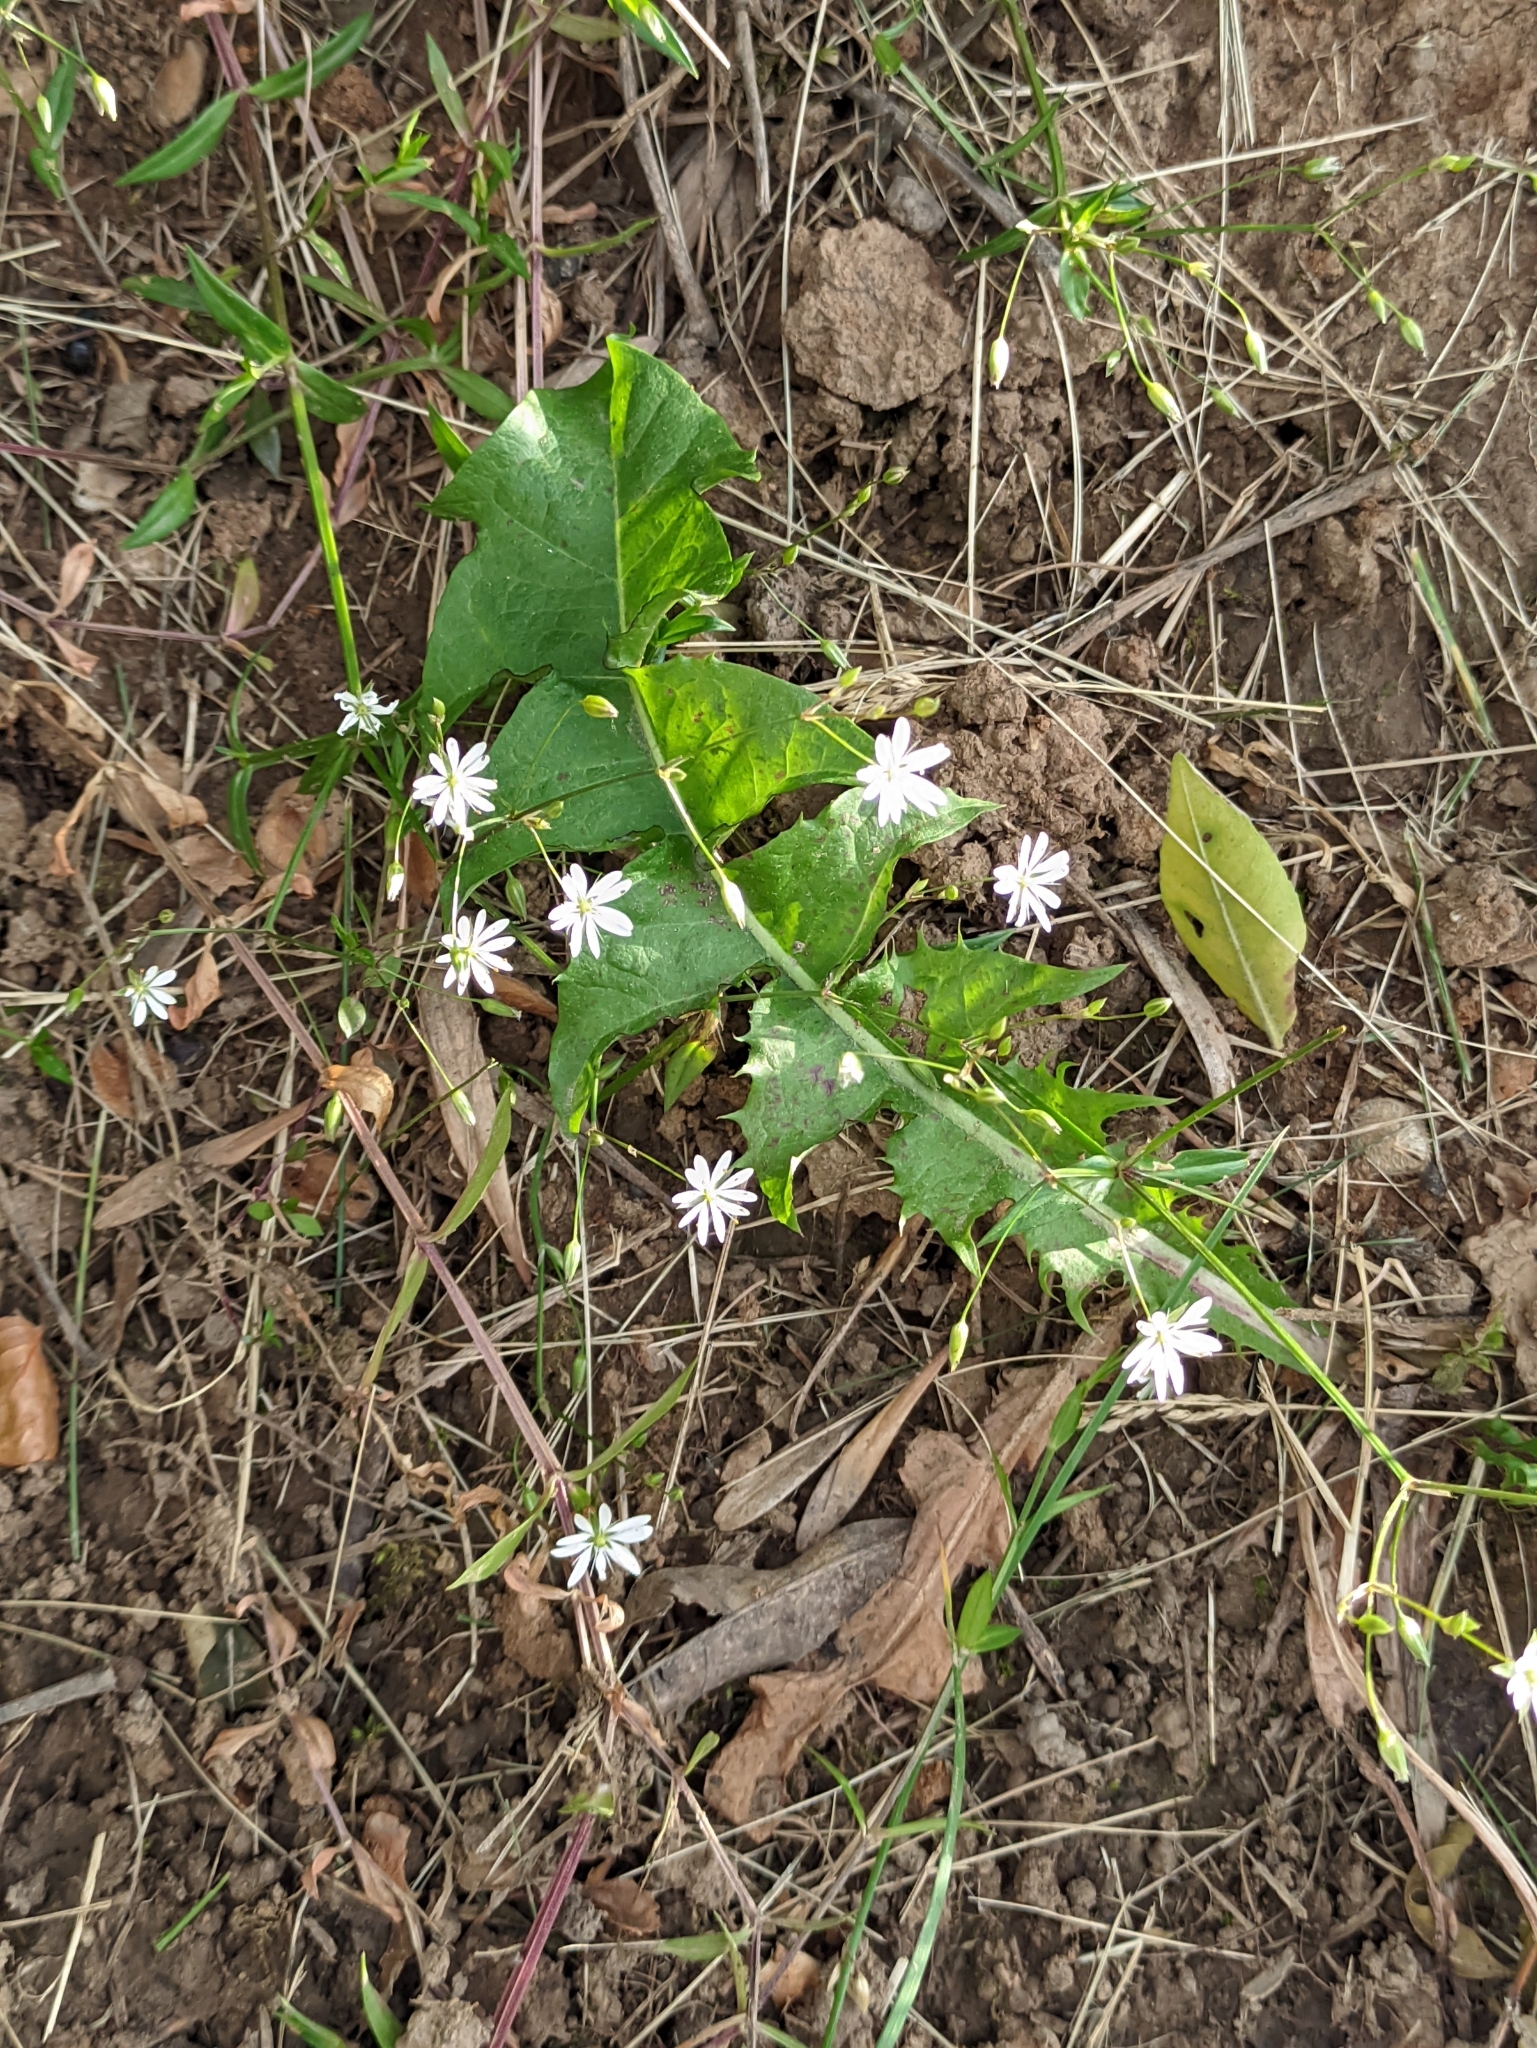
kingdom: Plantae
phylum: Tracheophyta
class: Magnoliopsida
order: Caryophyllales
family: Caryophyllaceae
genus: Stellaria
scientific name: Stellaria graminea
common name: Grass-like starwort
